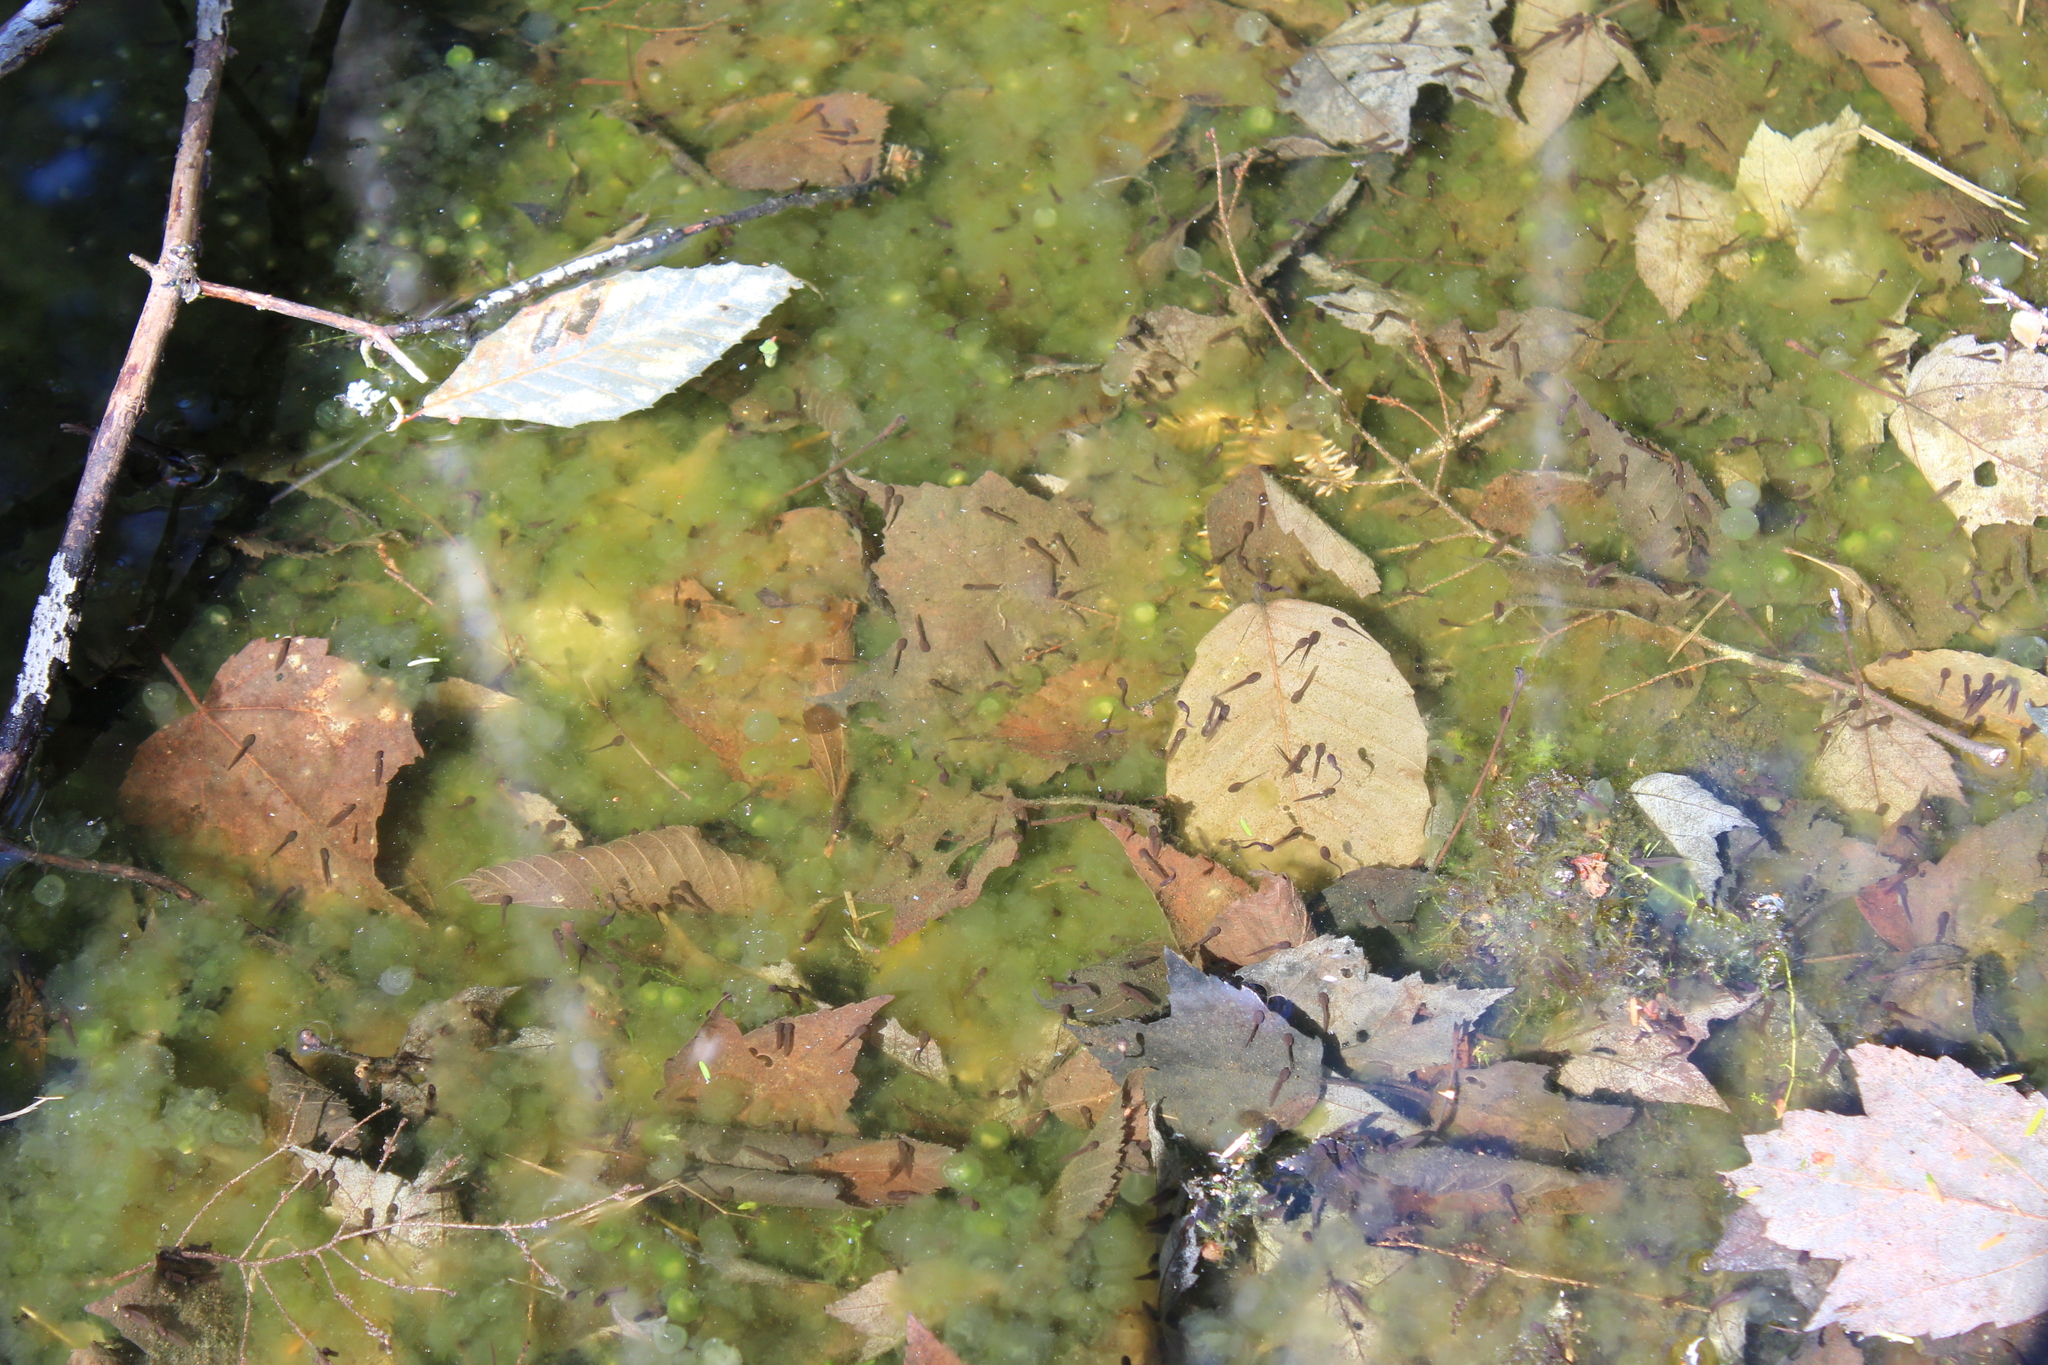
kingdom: Animalia
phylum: Chordata
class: Amphibia
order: Anura
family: Ranidae
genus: Lithobates
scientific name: Lithobates sylvaticus
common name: Wood frog
